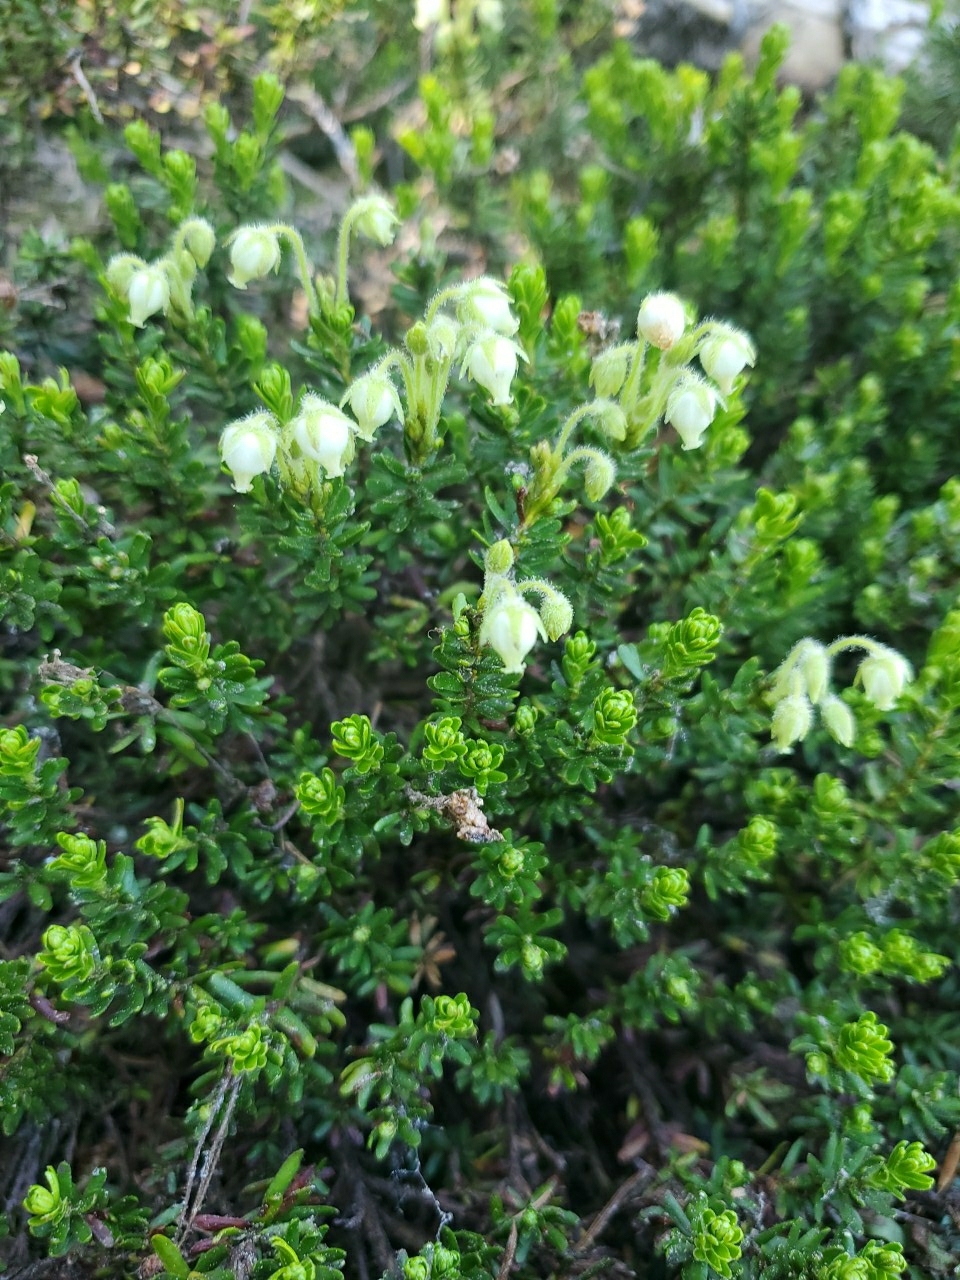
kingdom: Plantae
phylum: Tracheophyta
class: Magnoliopsida
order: Ericales
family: Ericaceae
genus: Phyllodoce
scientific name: Phyllodoce glanduliflora
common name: Cream mountain heather
